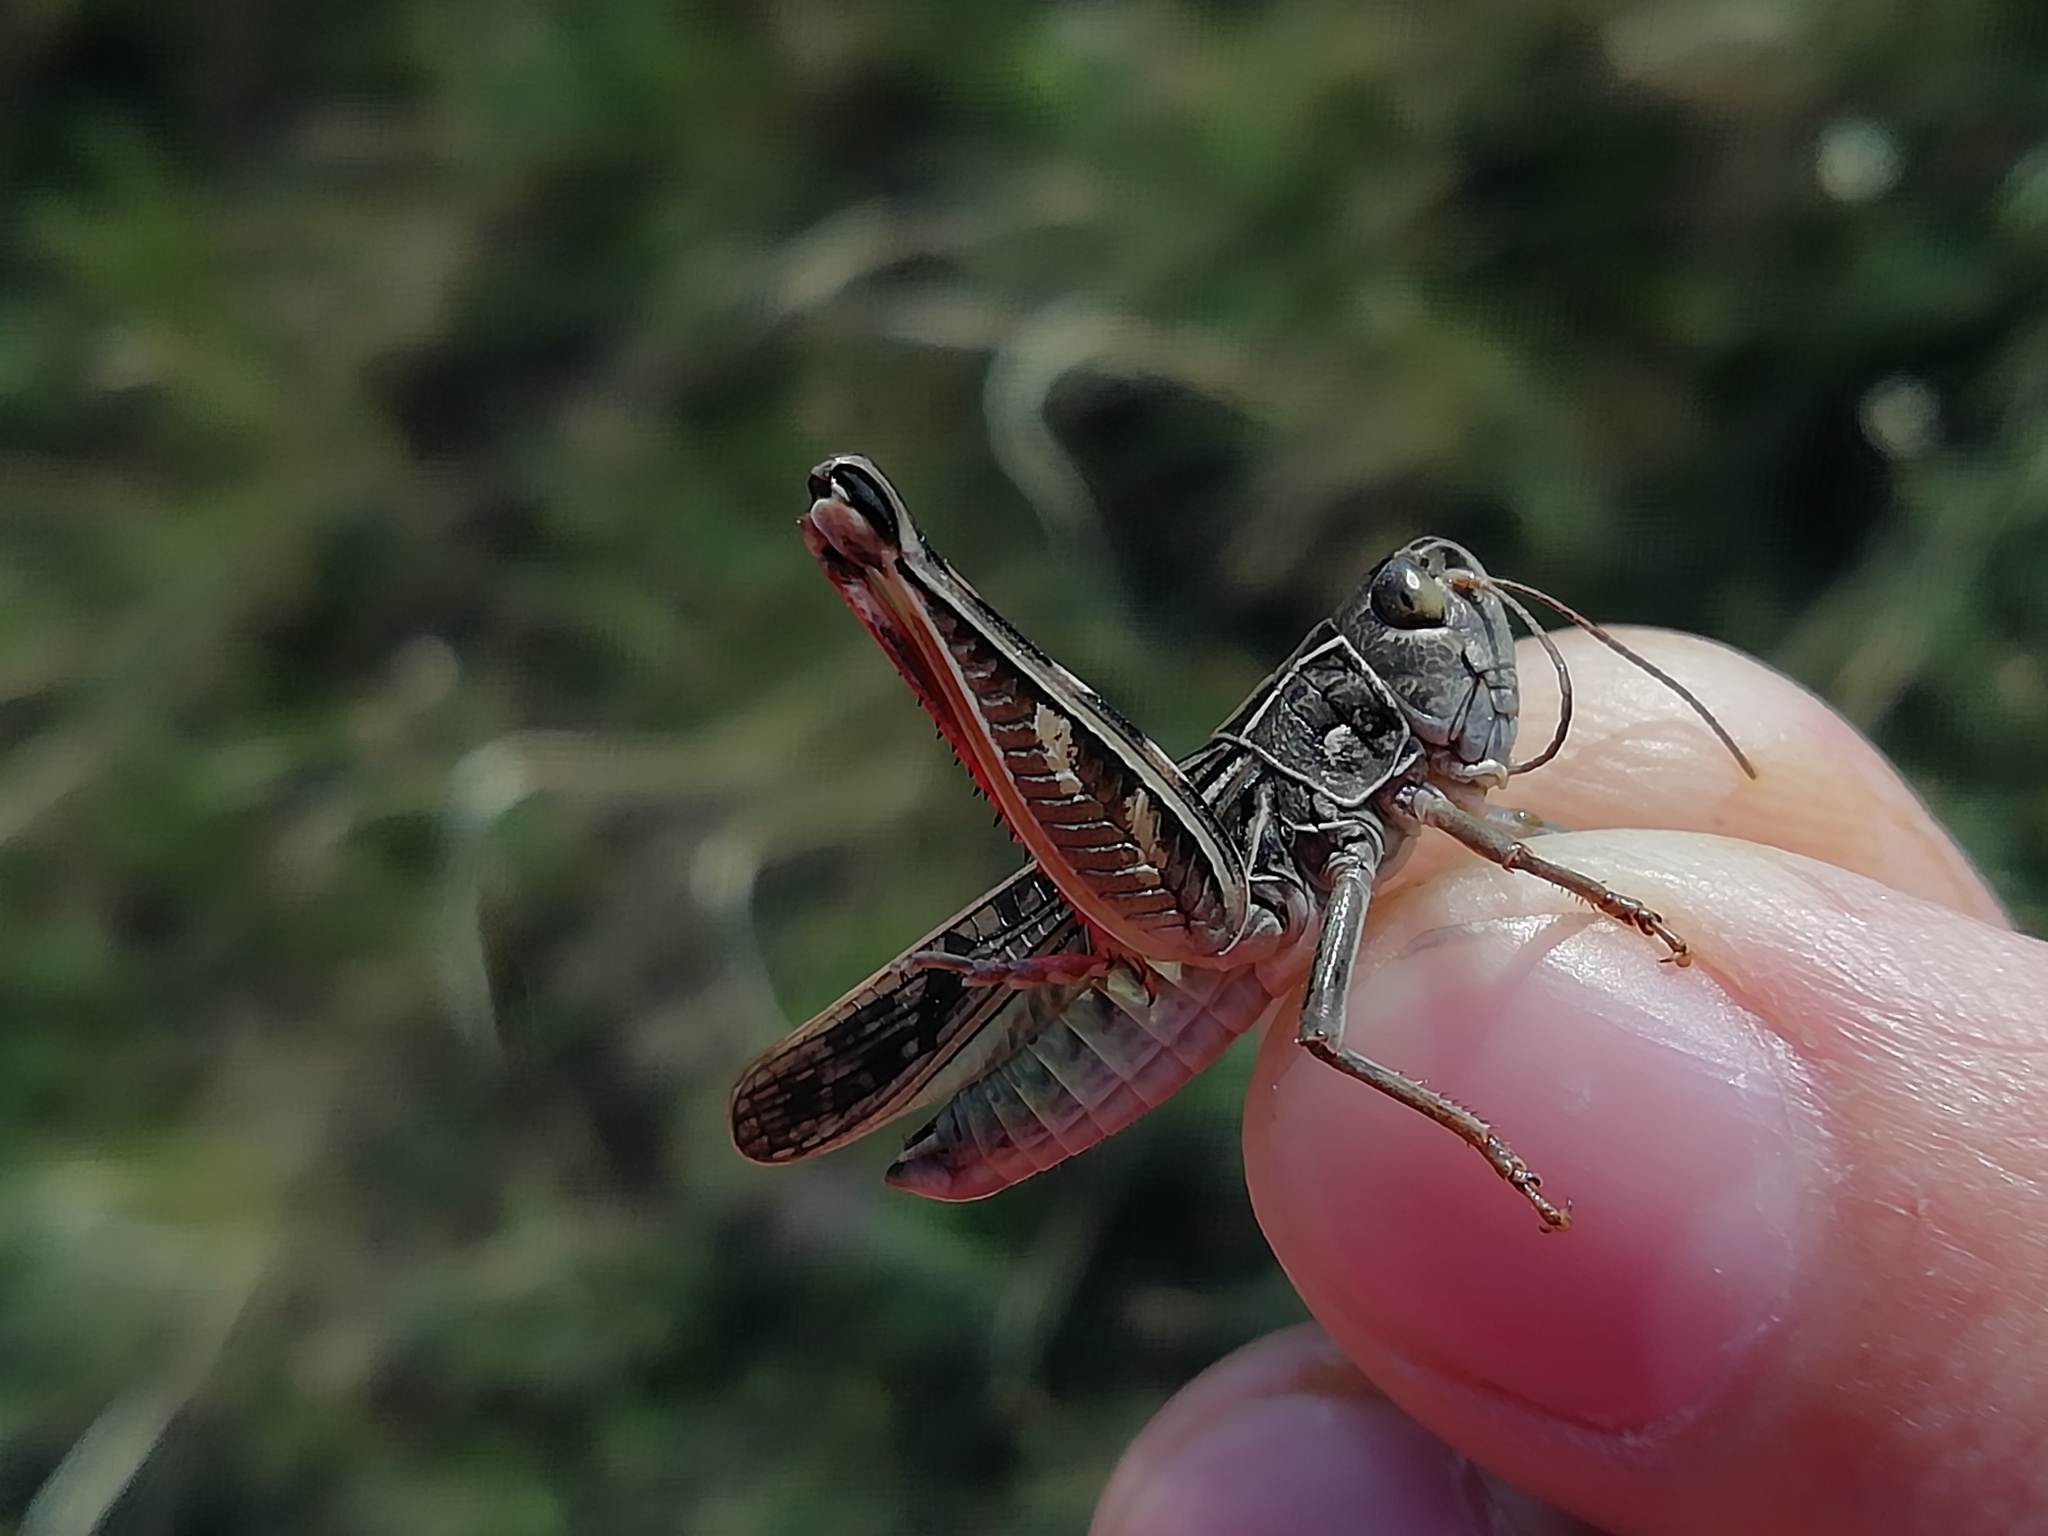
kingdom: Animalia
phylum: Arthropoda
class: Insecta
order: Orthoptera
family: Acrididae
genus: Arcyptera
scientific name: Arcyptera microptera
